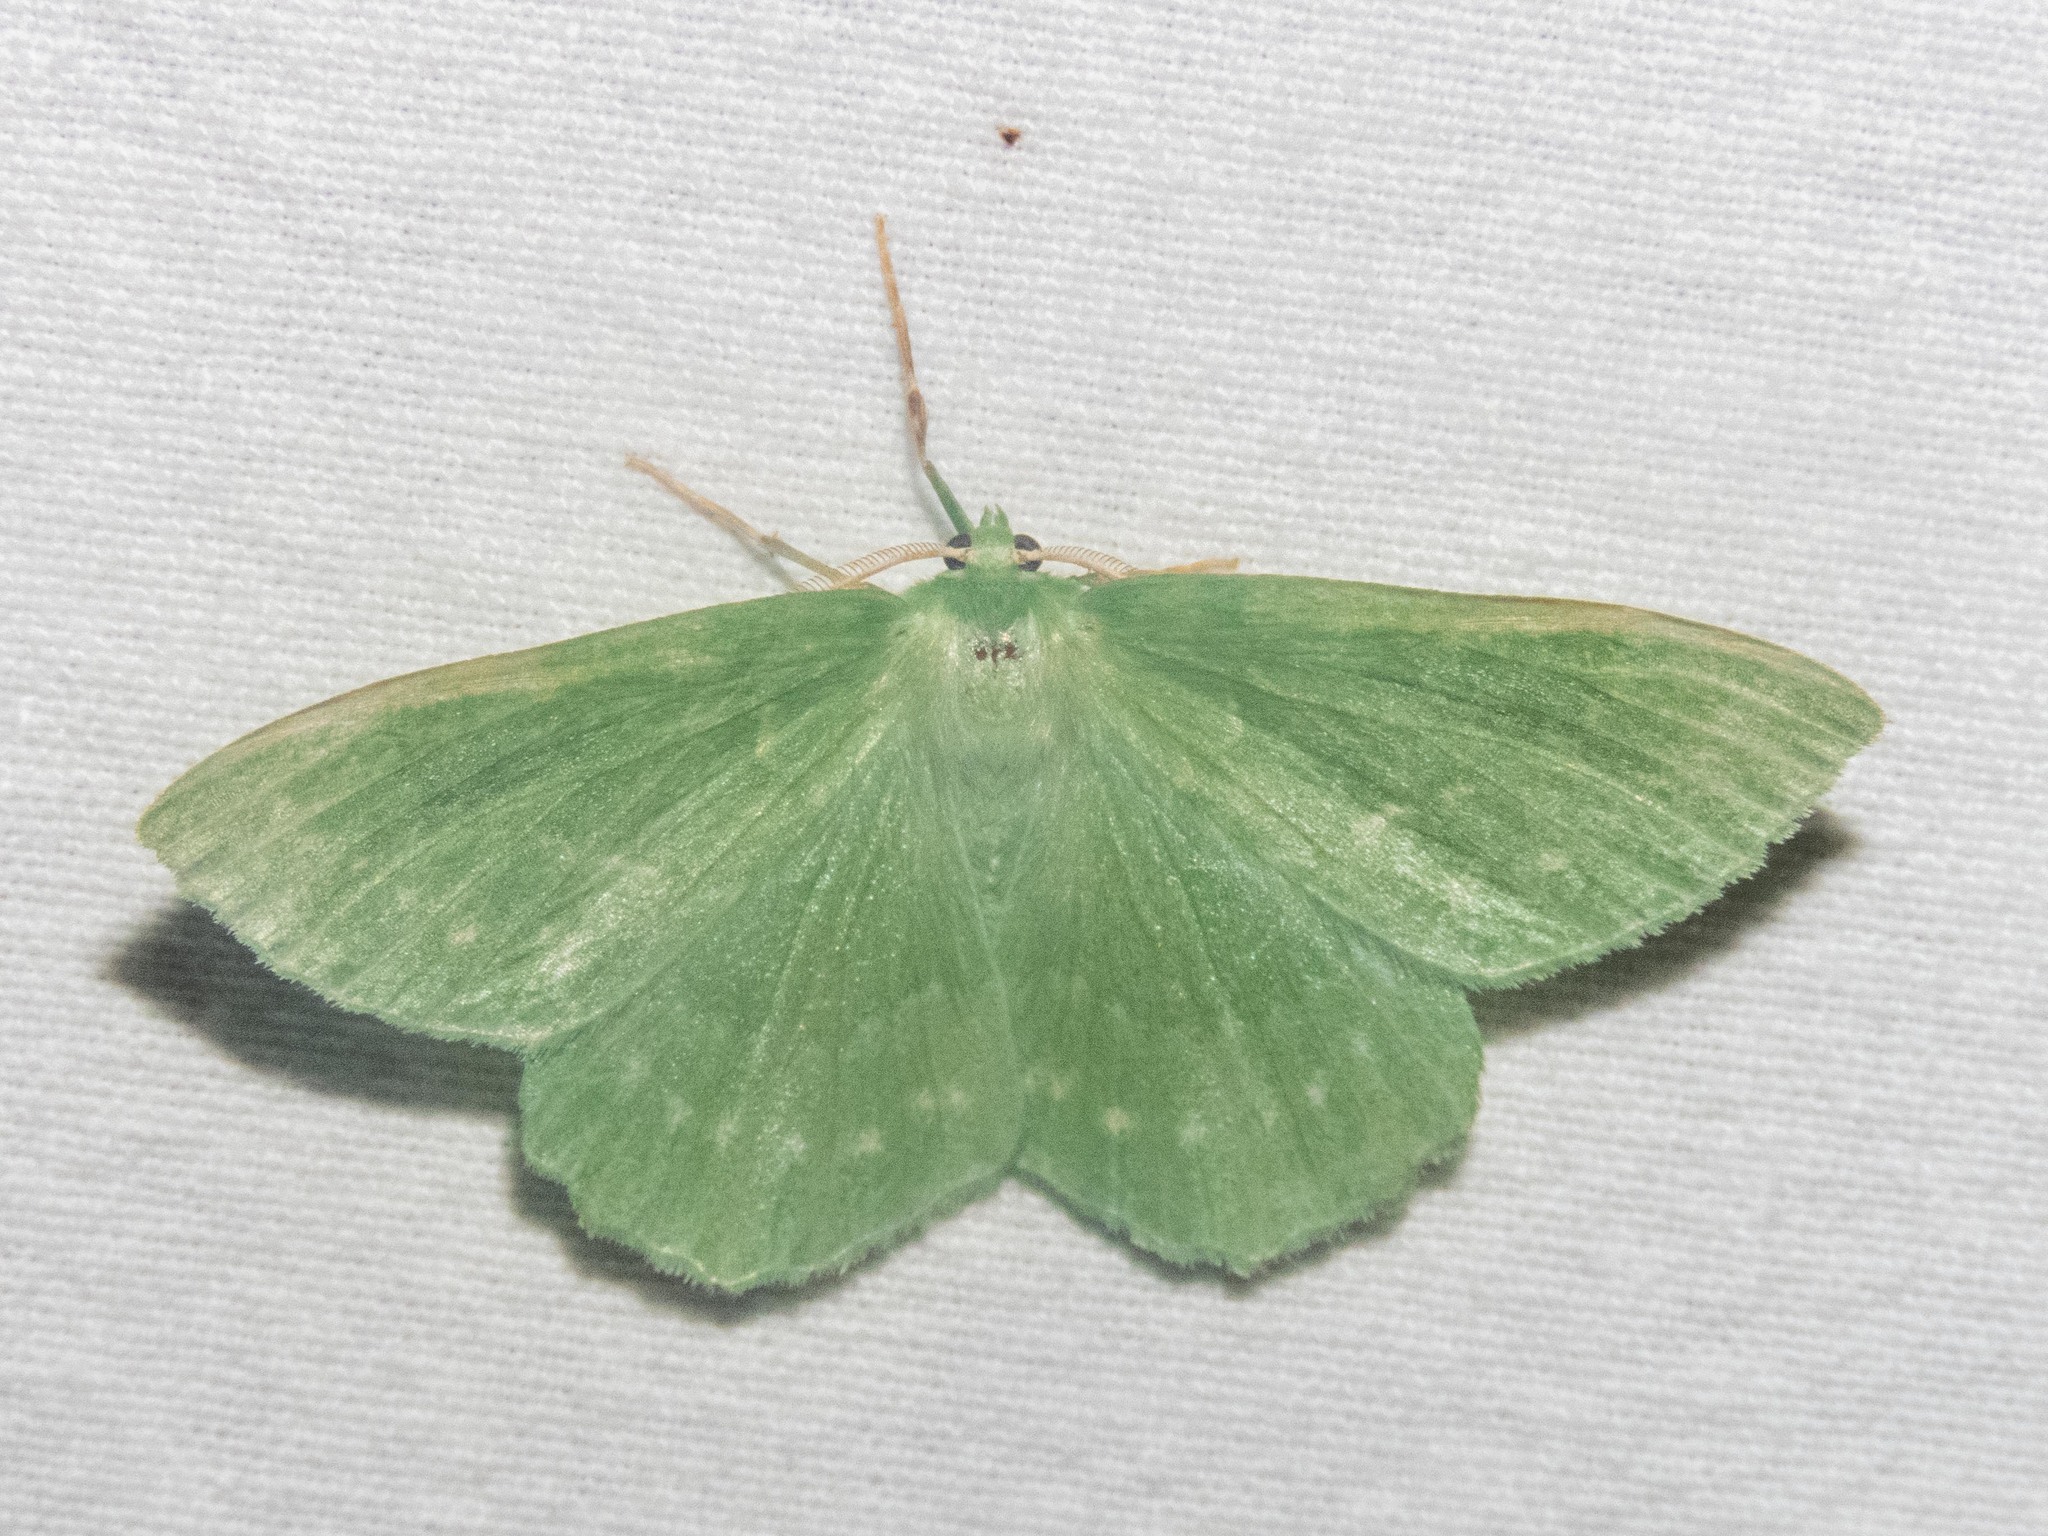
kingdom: Animalia
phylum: Arthropoda
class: Insecta
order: Lepidoptera
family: Geometridae
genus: Geometra
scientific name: Geometra papilionaria
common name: Large emerald
